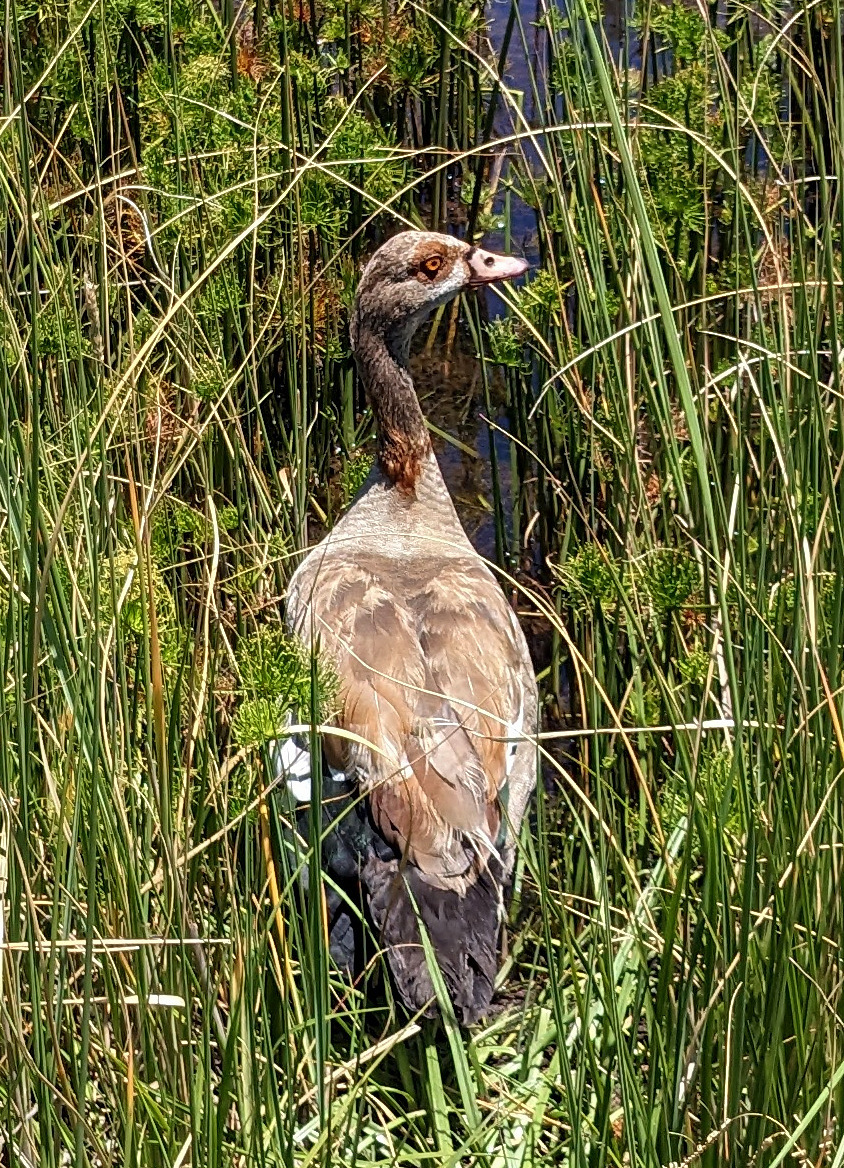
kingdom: Animalia
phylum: Chordata
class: Aves
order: Anseriformes
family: Anatidae
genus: Alopochen
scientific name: Alopochen aegyptiaca
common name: Egyptian goose
